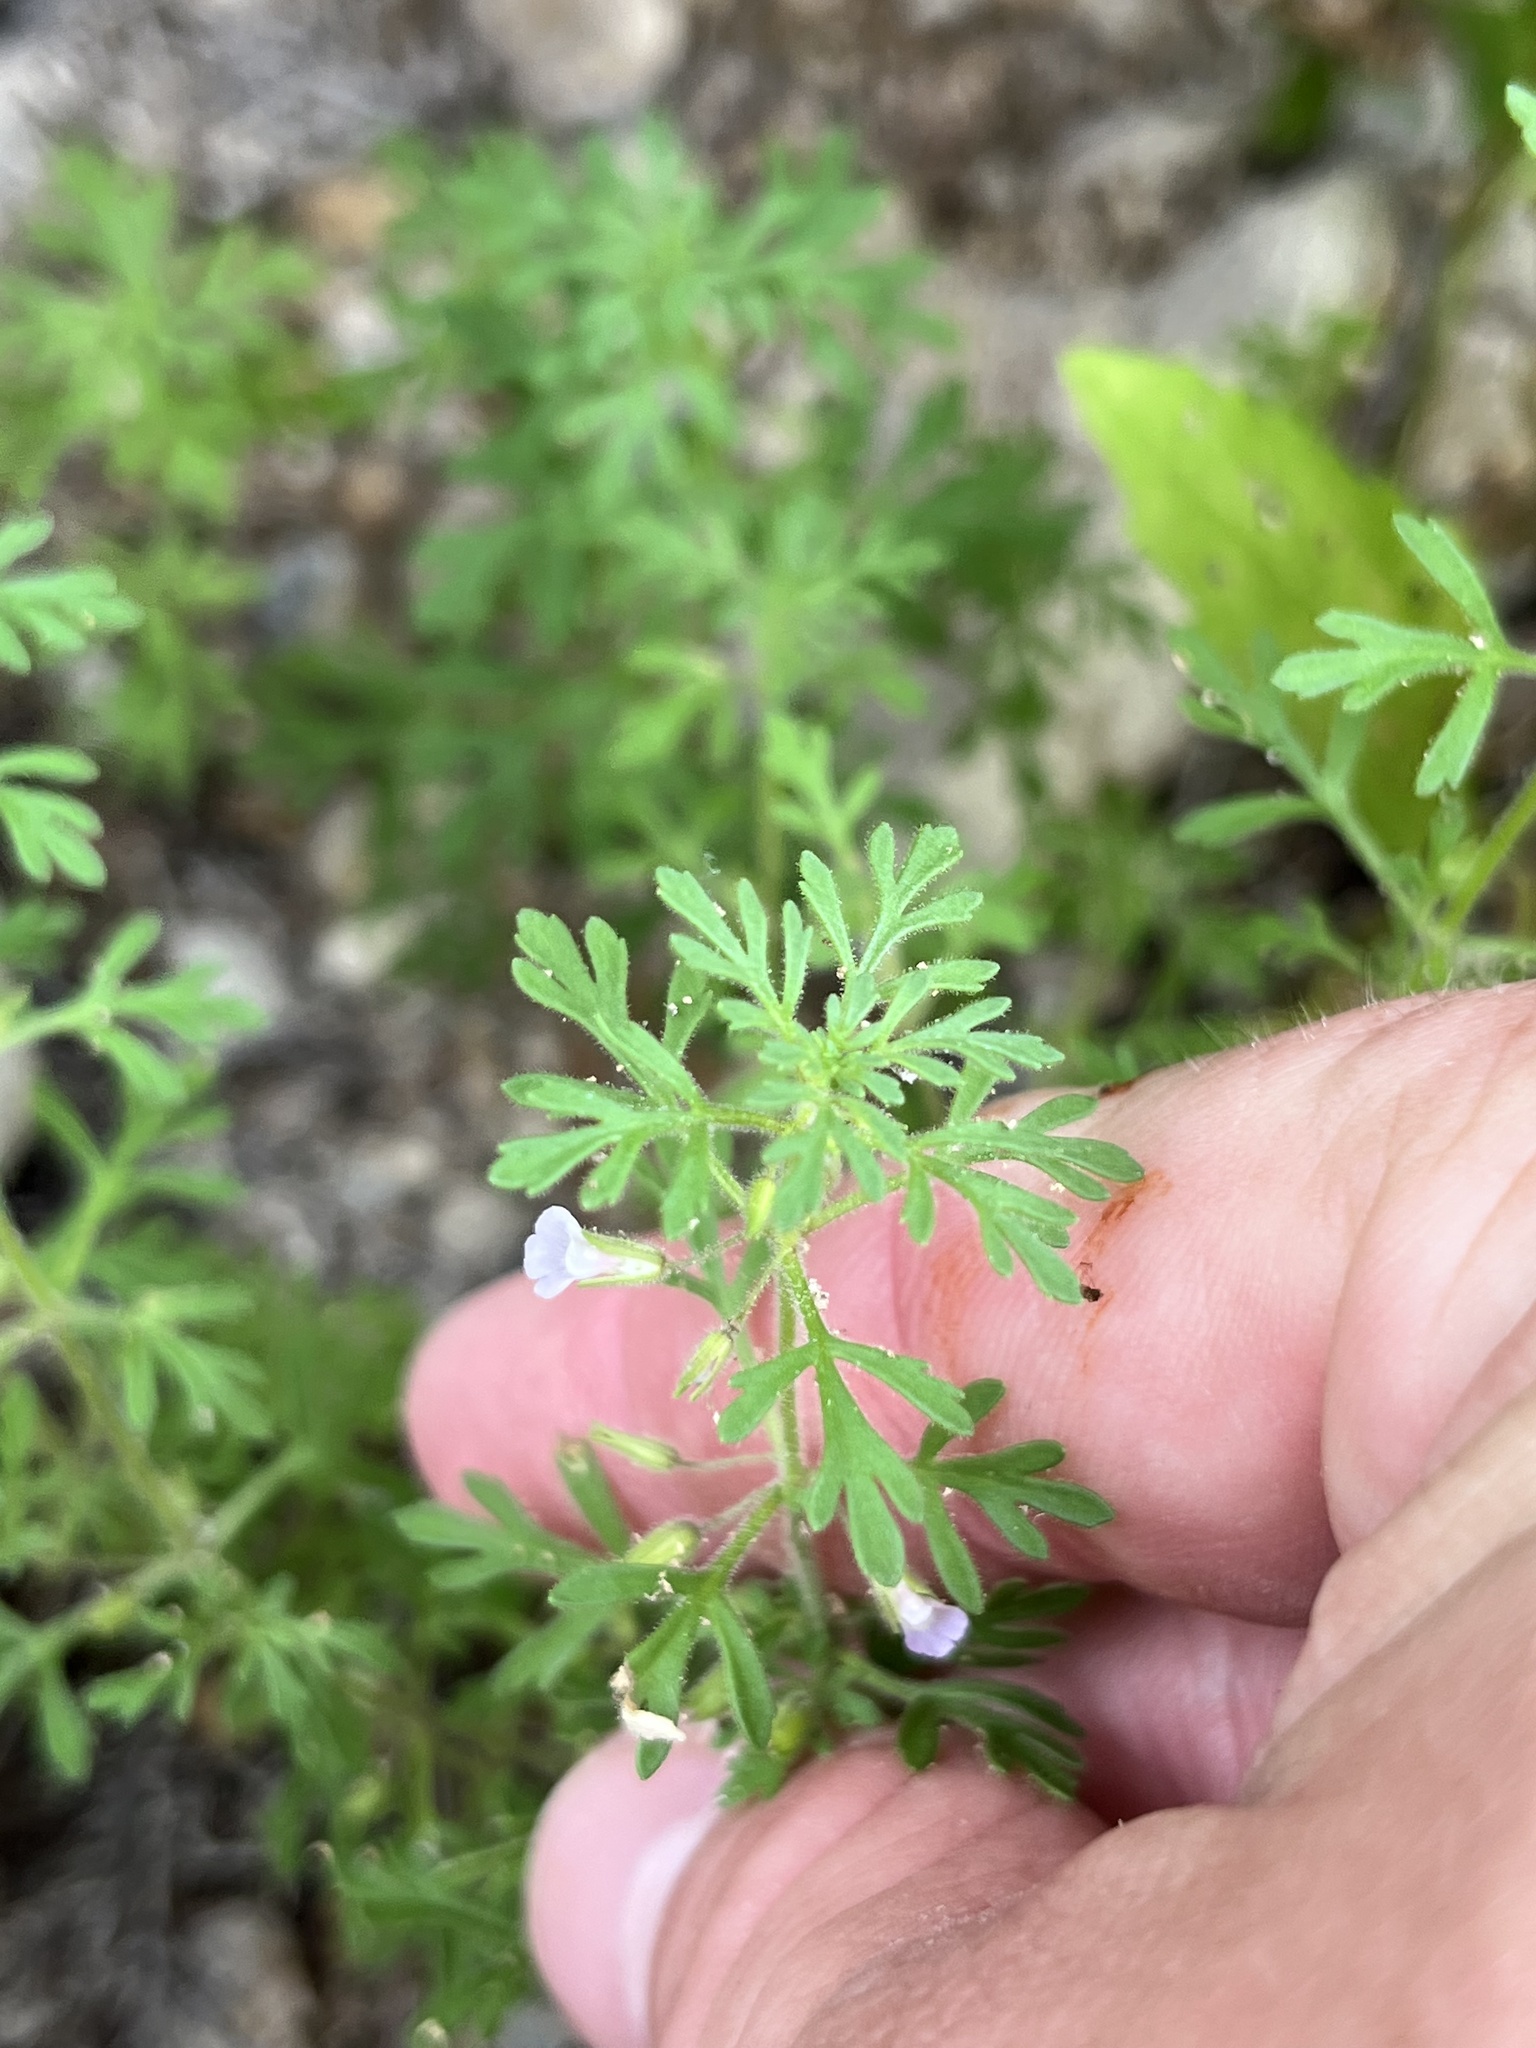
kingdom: Plantae
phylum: Tracheophyta
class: Magnoliopsida
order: Lamiales
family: Plantaginaceae
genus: Leucospora
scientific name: Leucospora multifida
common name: Narrow-leaf paleseed
